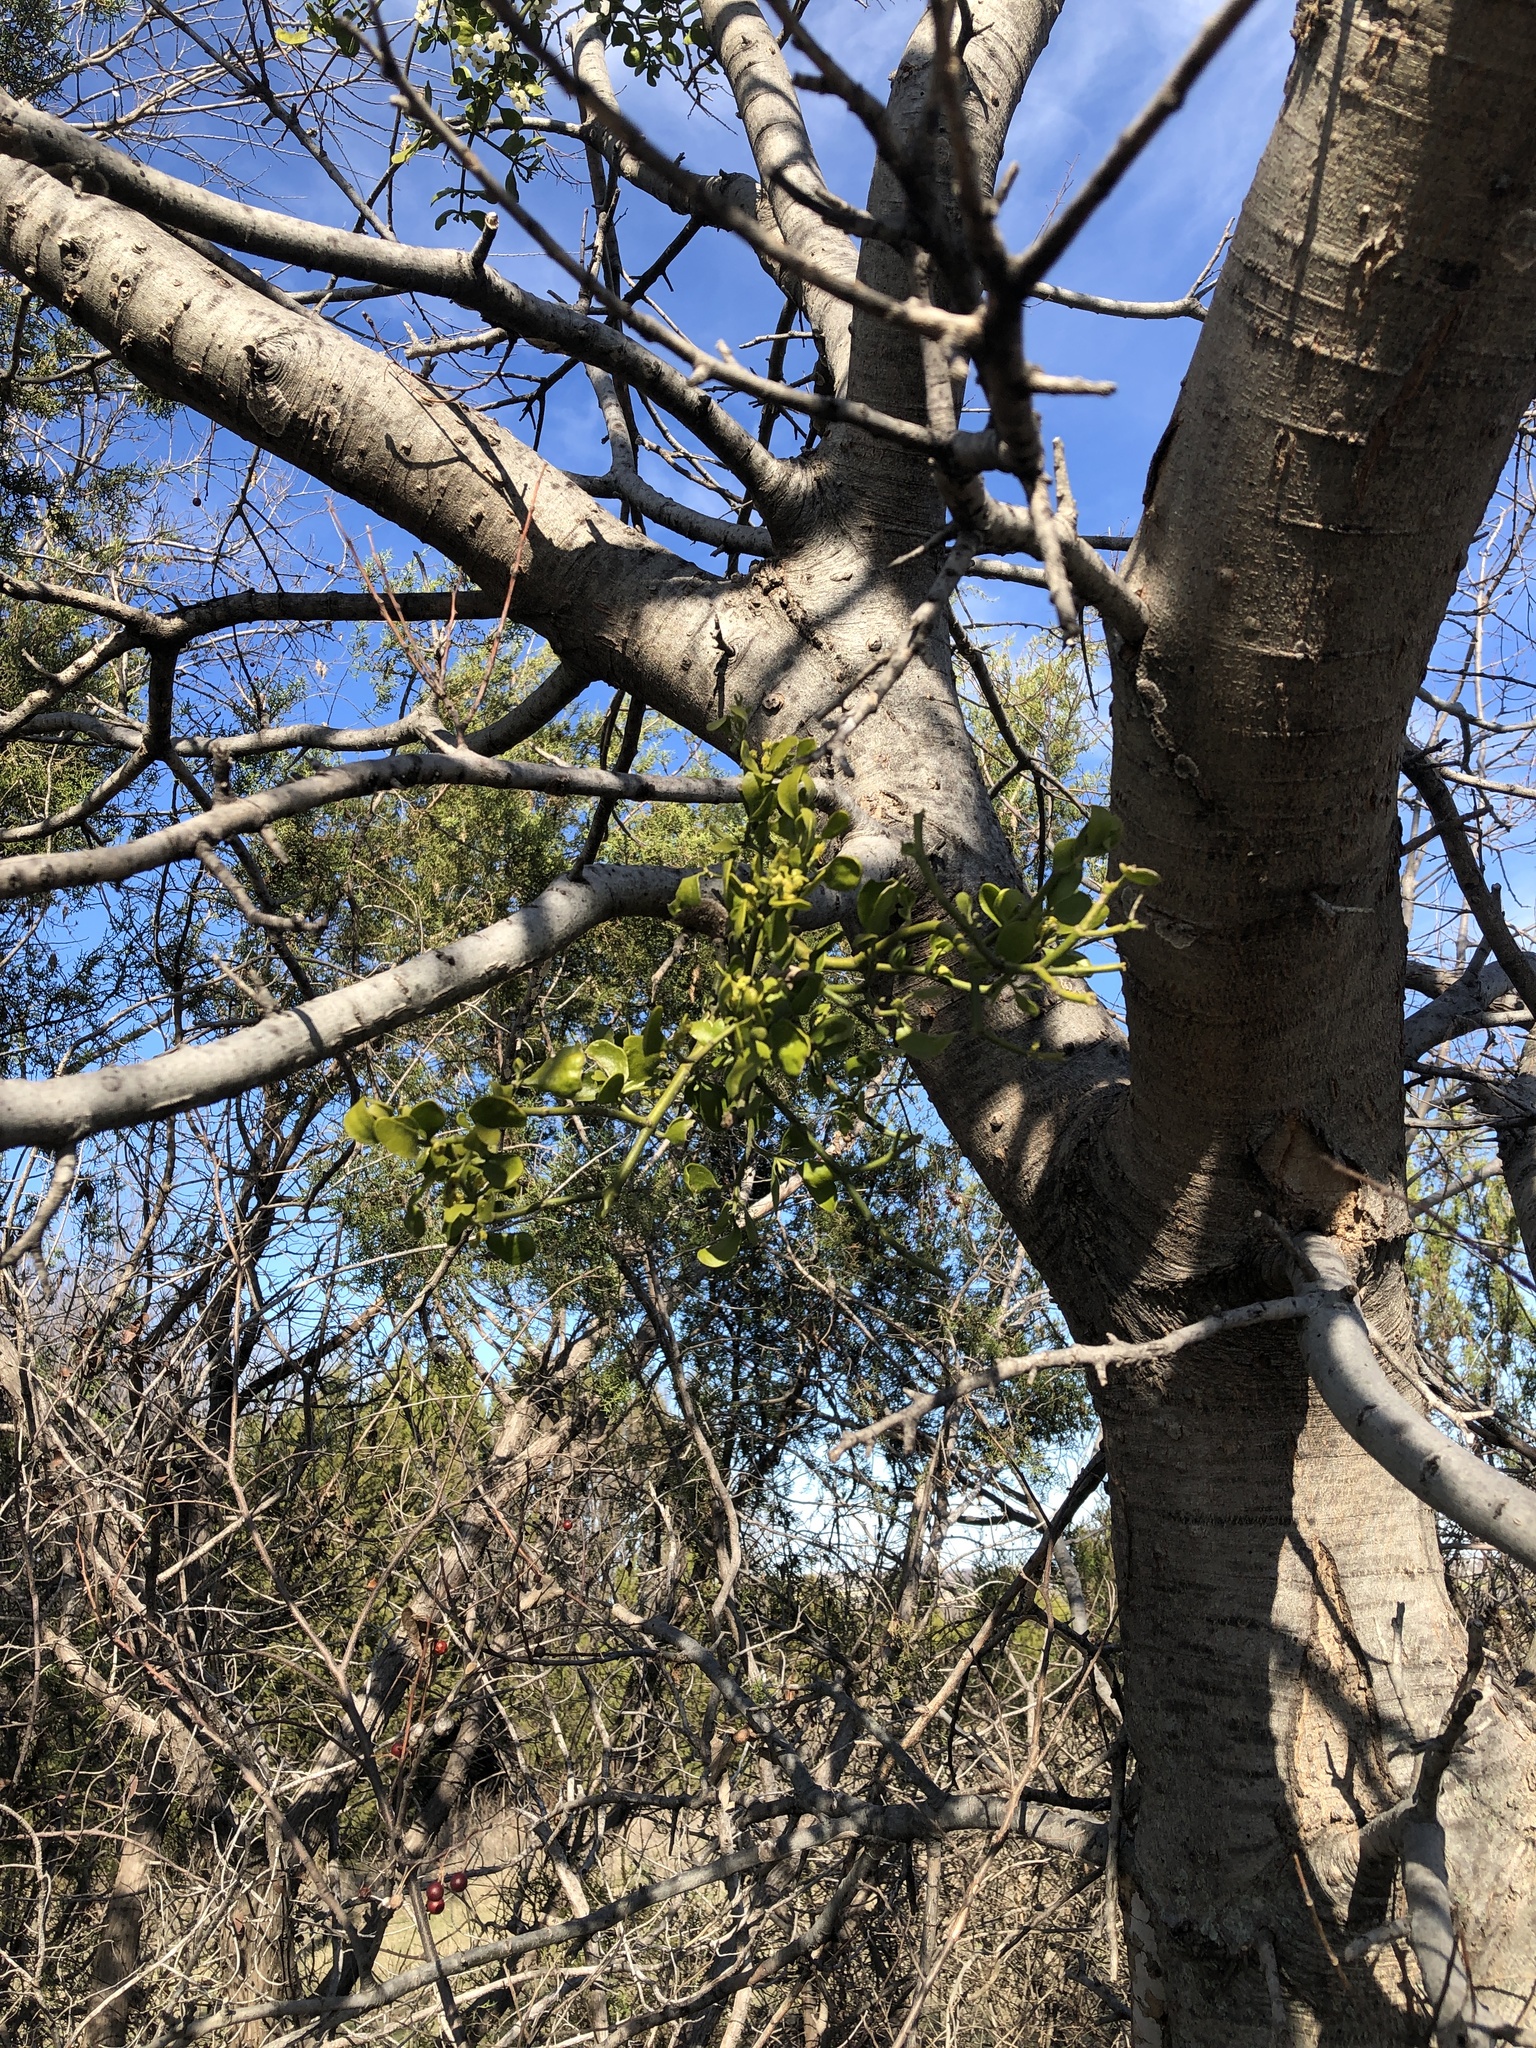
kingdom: Plantae
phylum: Tracheophyta
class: Magnoliopsida
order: Santalales
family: Viscaceae
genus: Phoradendron
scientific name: Phoradendron leucarpum
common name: Pacific mistletoe
